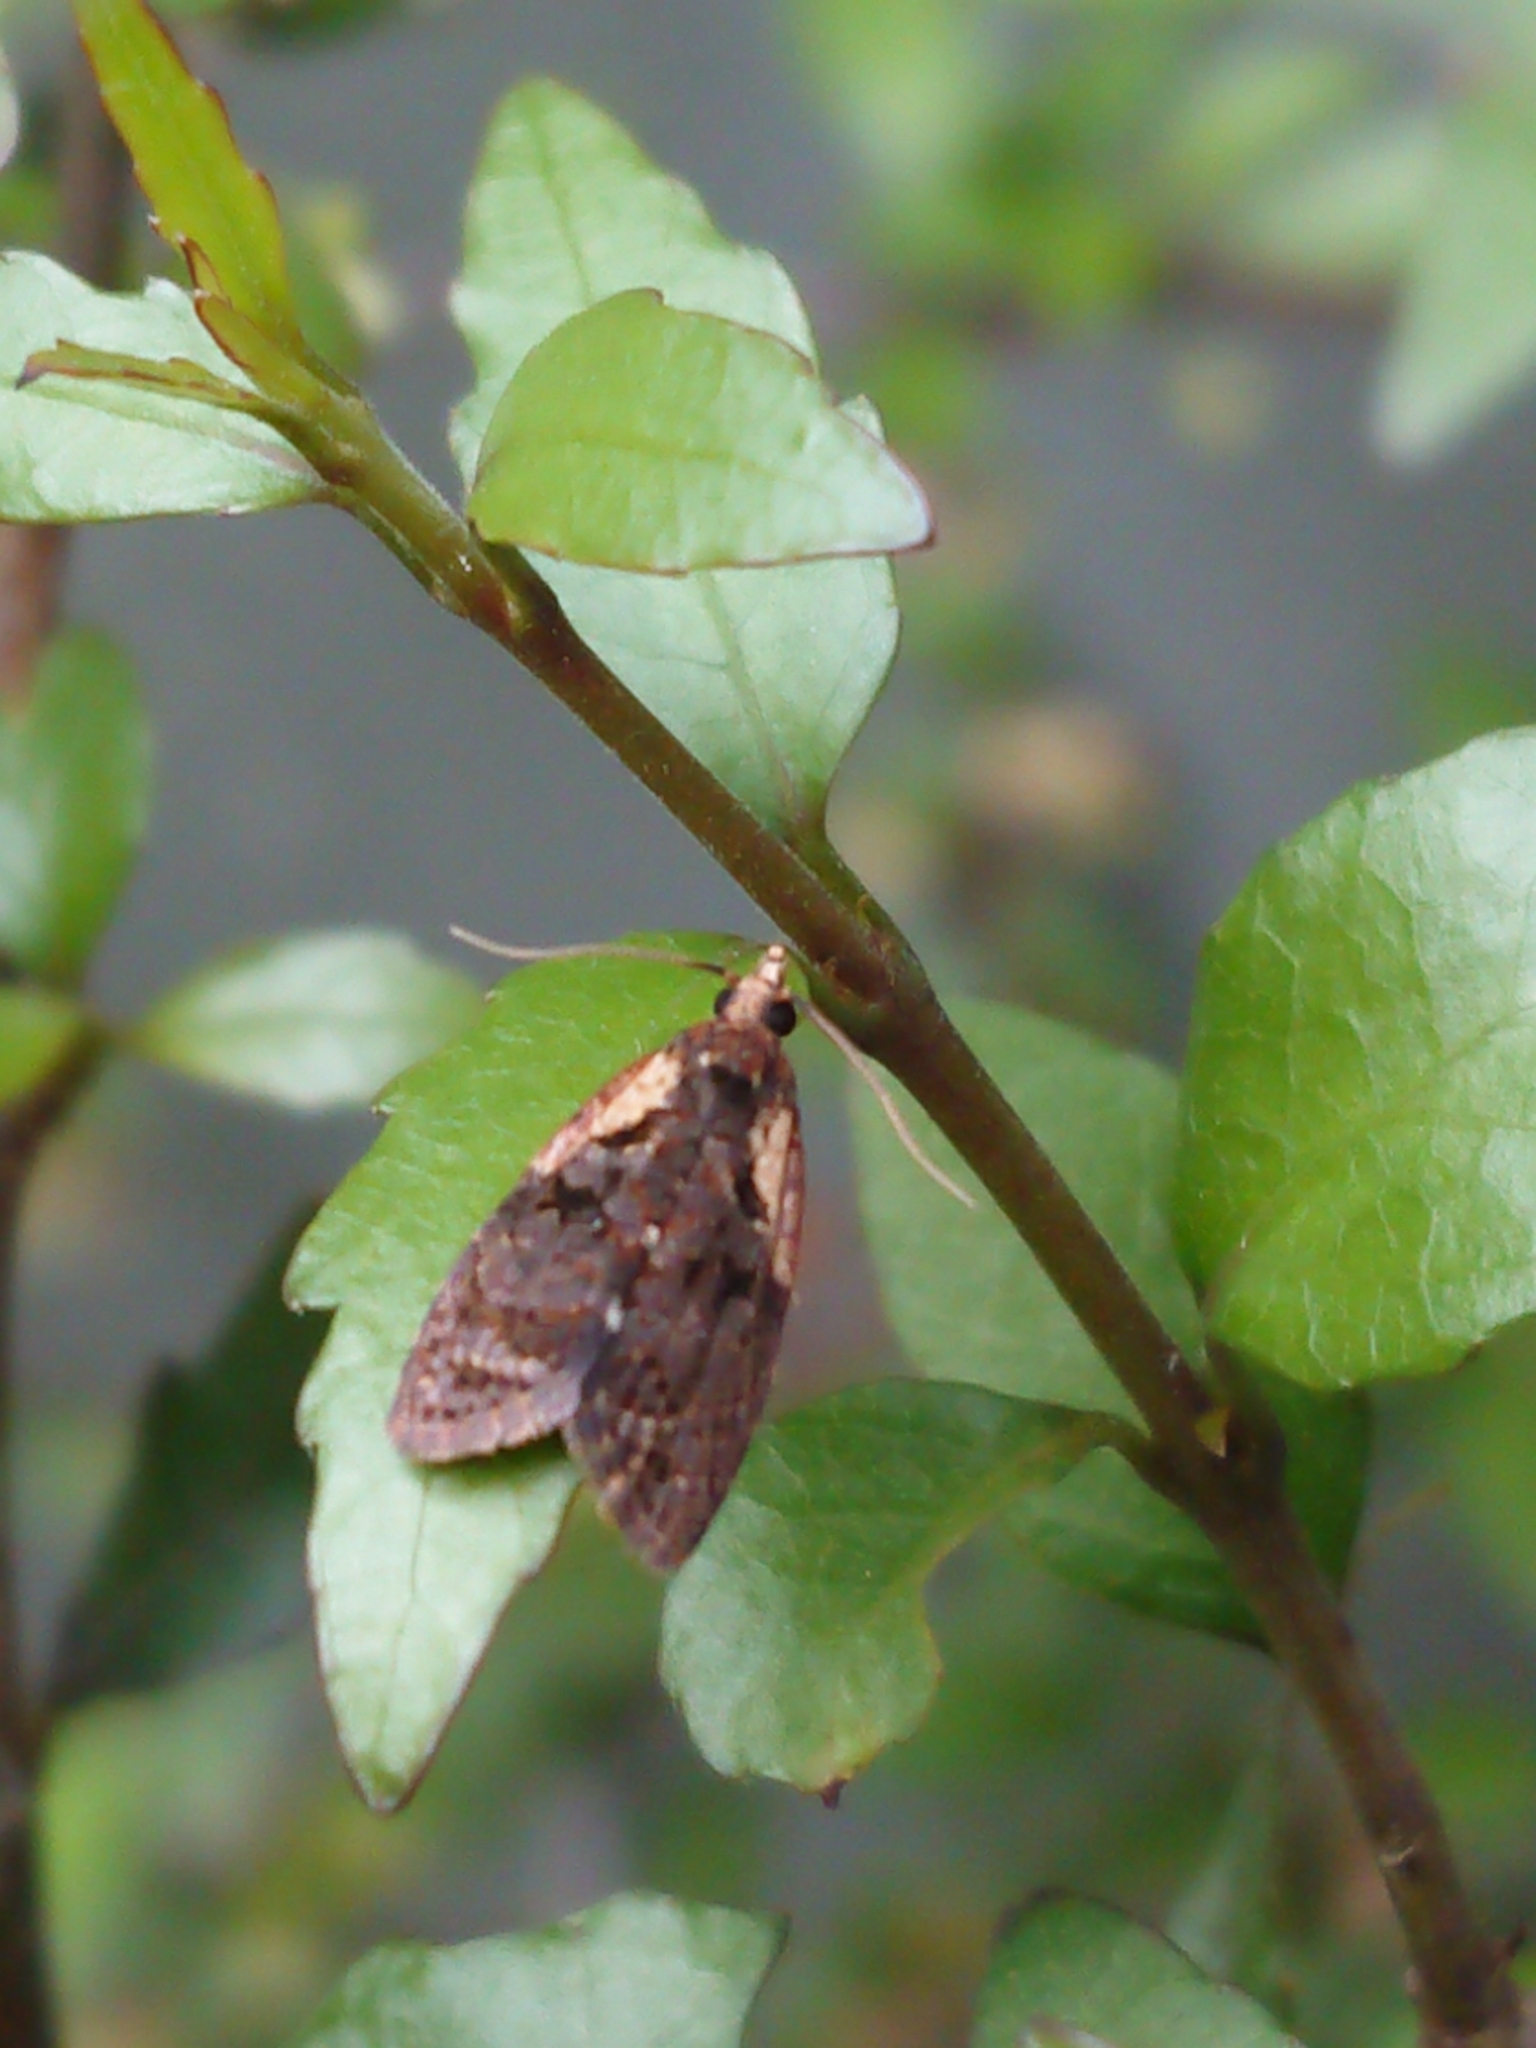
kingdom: Animalia
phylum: Arthropoda
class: Insecta
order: Lepidoptera
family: Tortricidae
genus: Capua
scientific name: Capua intractana
